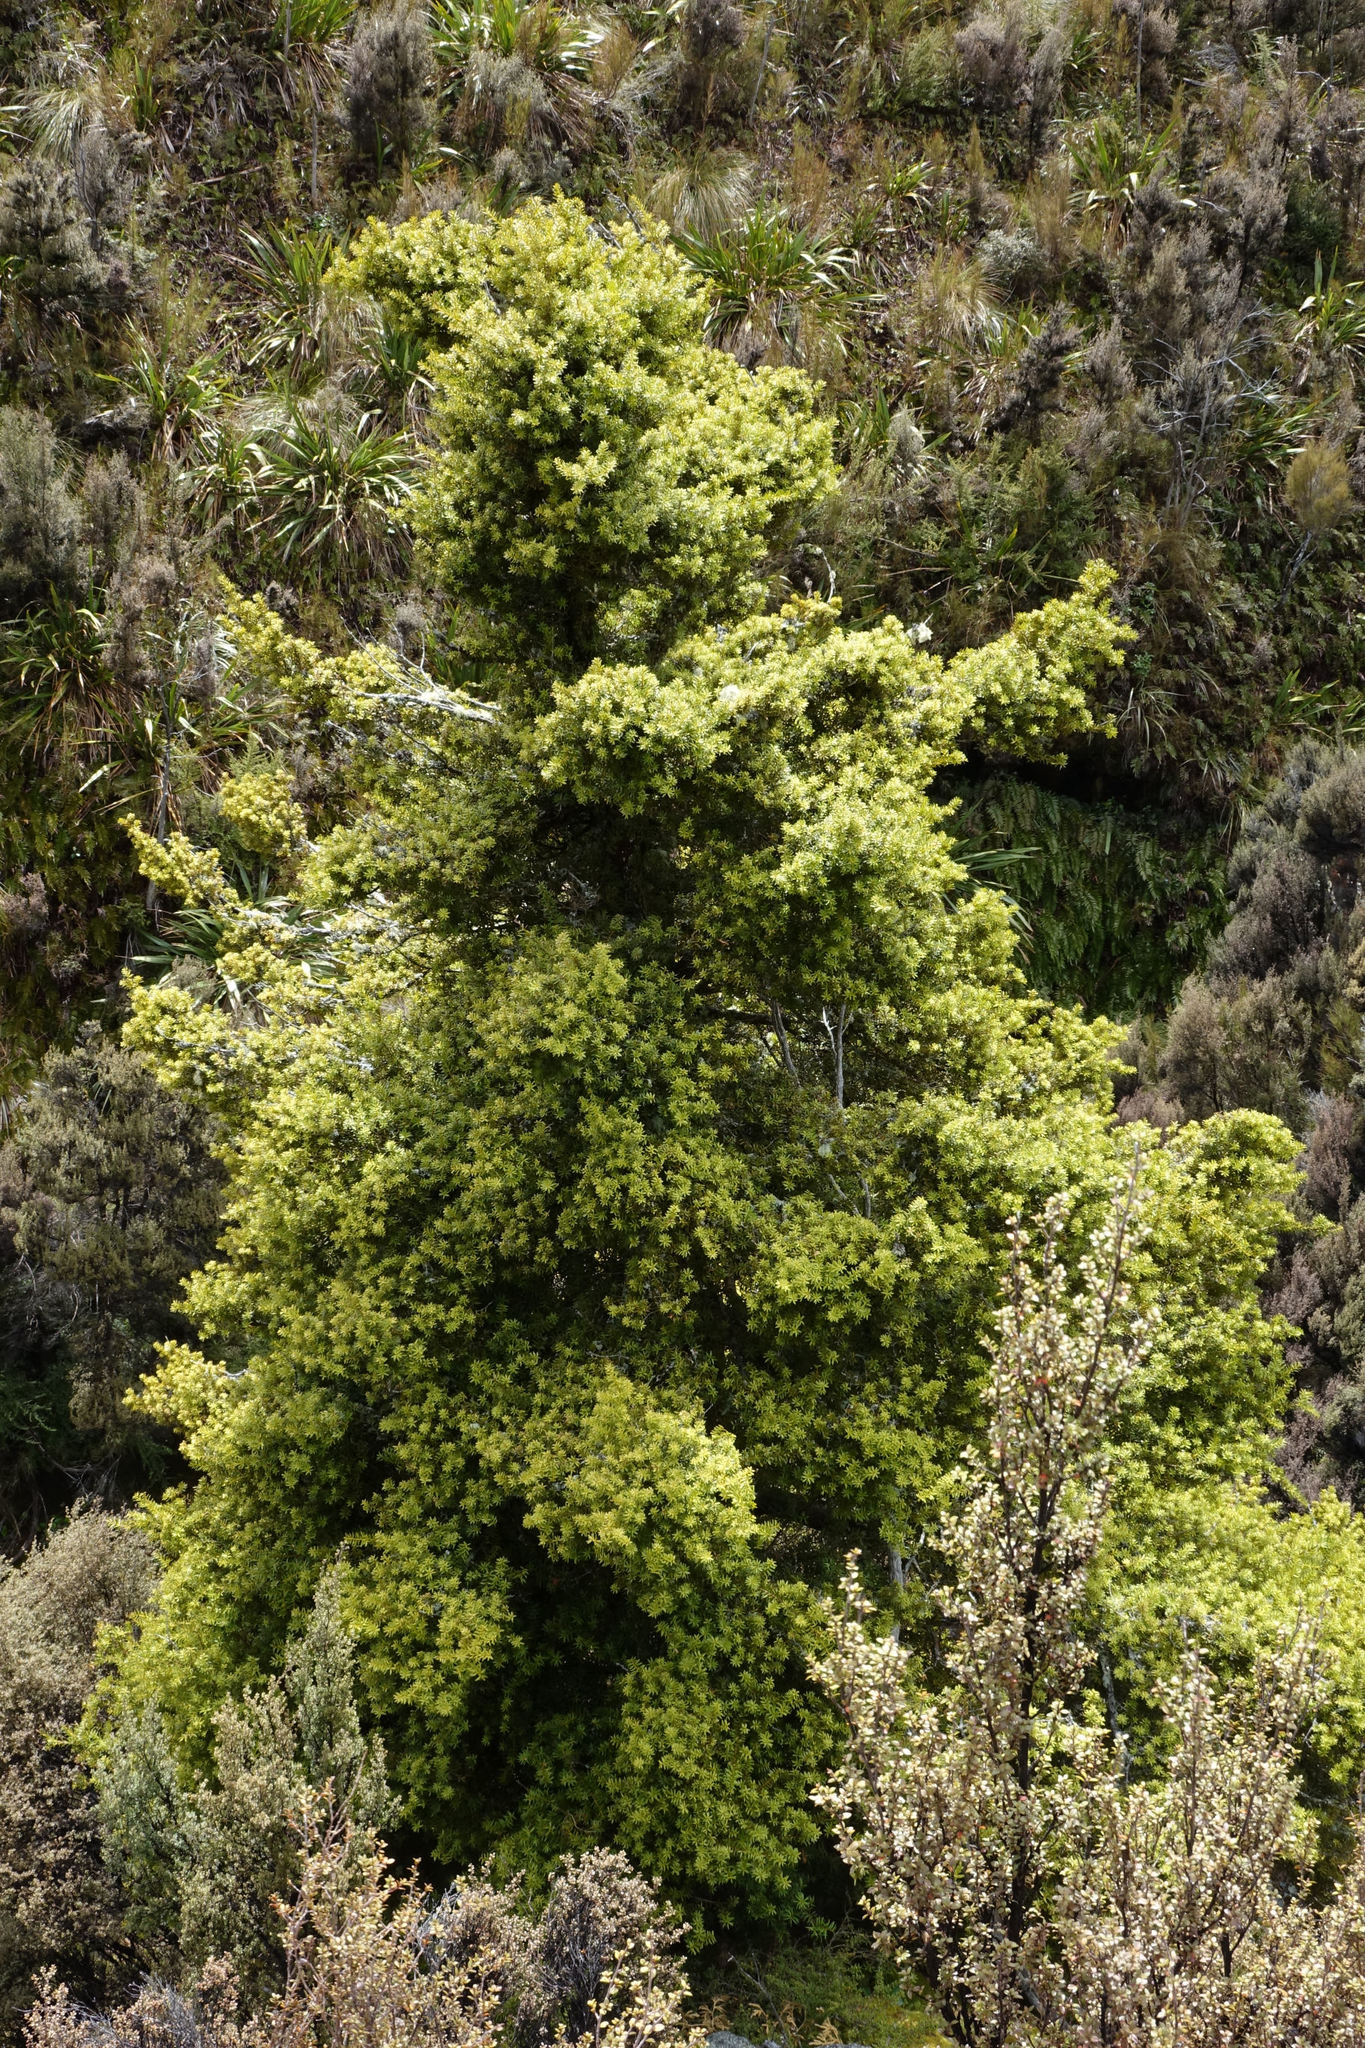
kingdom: Plantae
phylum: Tracheophyta
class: Pinopsida
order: Pinales
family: Podocarpaceae
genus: Podocarpus
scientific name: Podocarpus laetus
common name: Hall's totara
